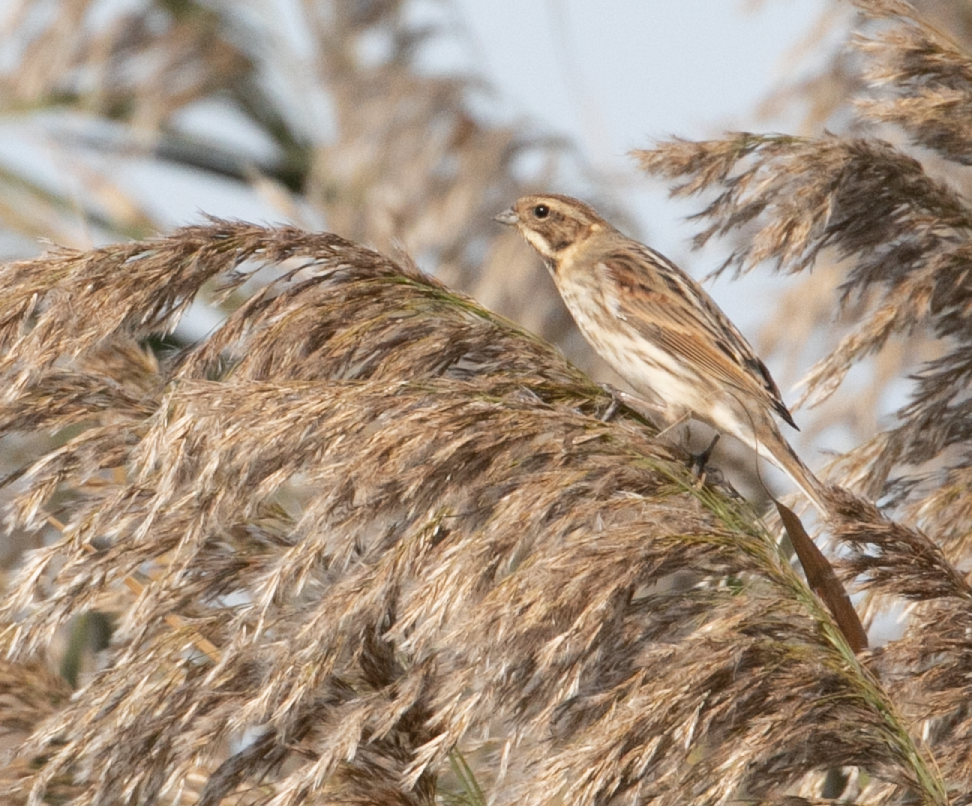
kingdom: Animalia
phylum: Chordata
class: Aves
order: Passeriformes
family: Emberizidae
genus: Emberiza
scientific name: Emberiza schoeniclus
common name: Reed bunting
